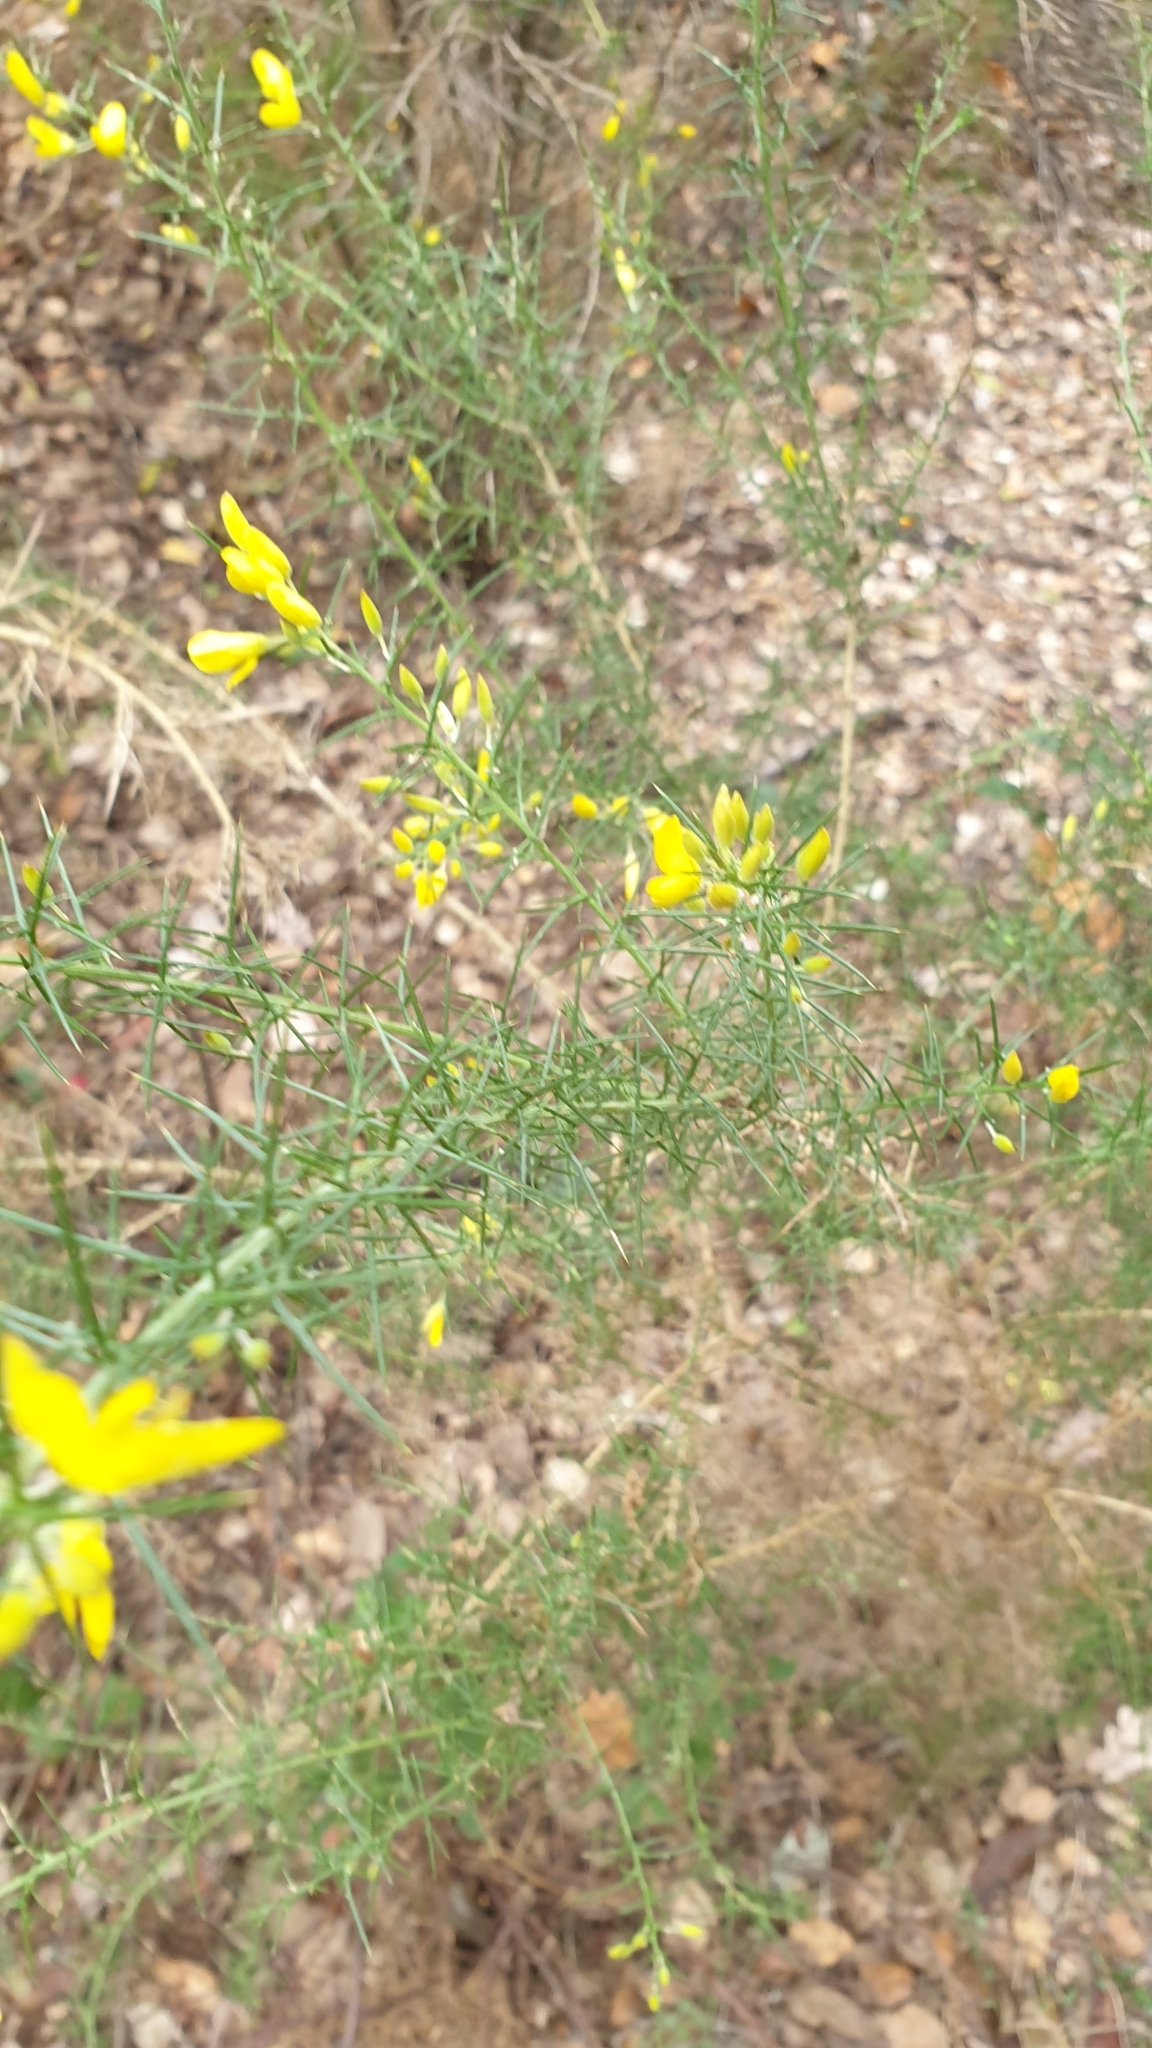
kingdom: Plantae
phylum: Tracheophyta
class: Magnoliopsida
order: Fabales
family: Fabaceae
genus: Ulex
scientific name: Ulex parviflorus
